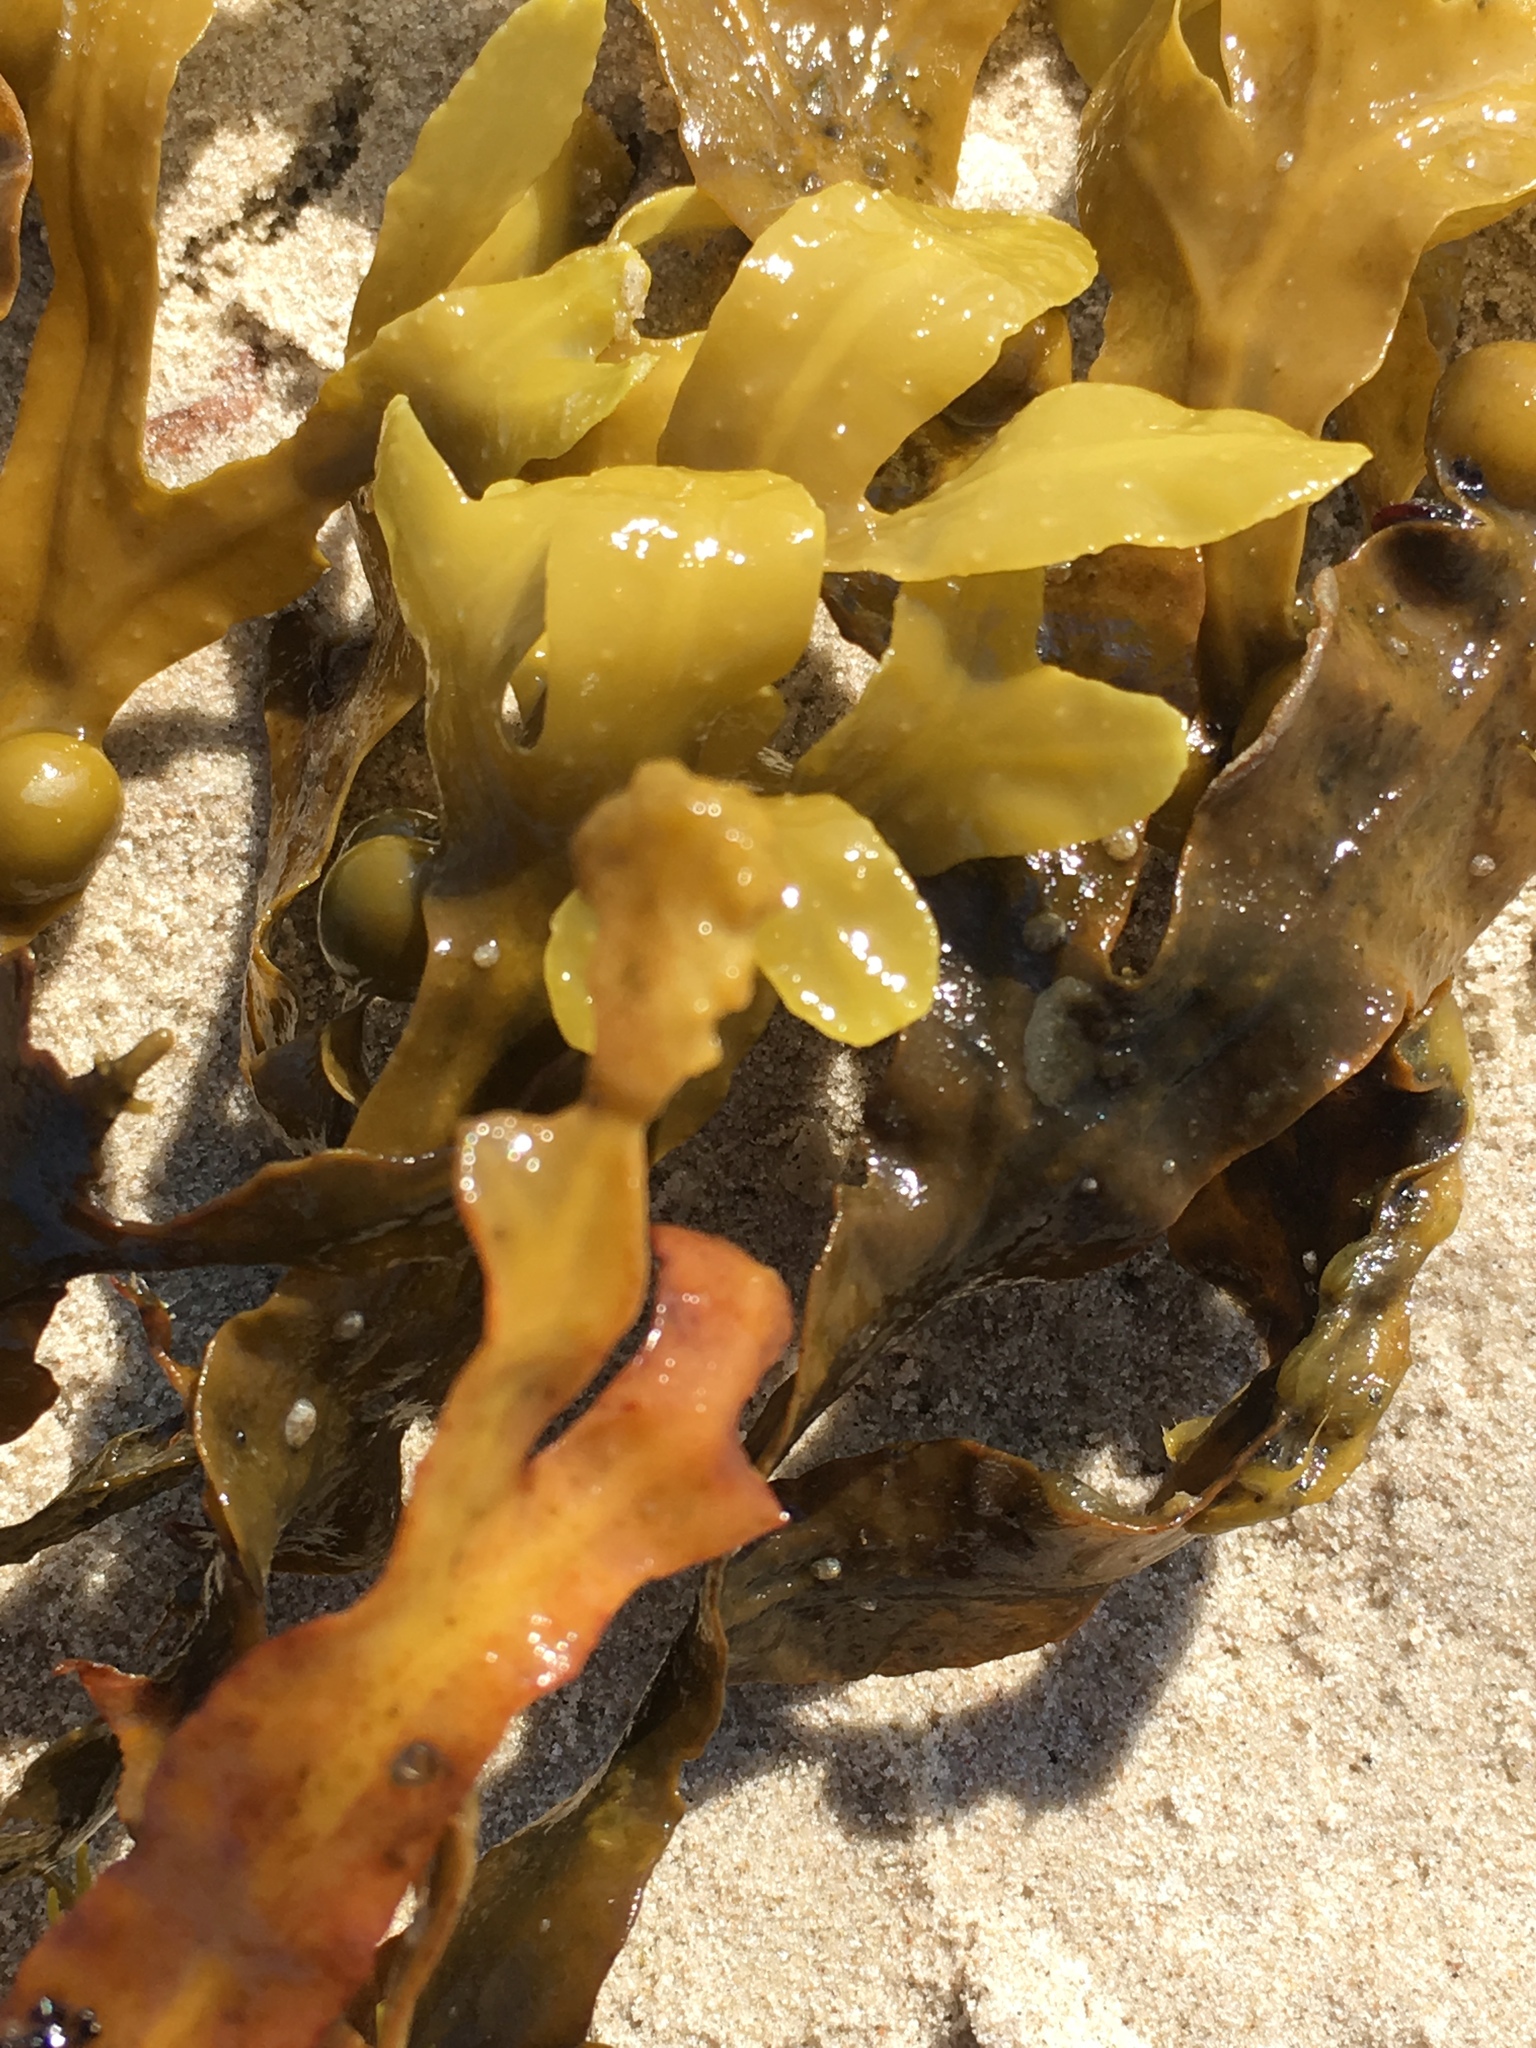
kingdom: Chromista
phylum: Ochrophyta
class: Phaeophyceae
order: Fucales
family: Fucaceae
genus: Fucus
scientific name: Fucus vesiculosus
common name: Bladder wrack
